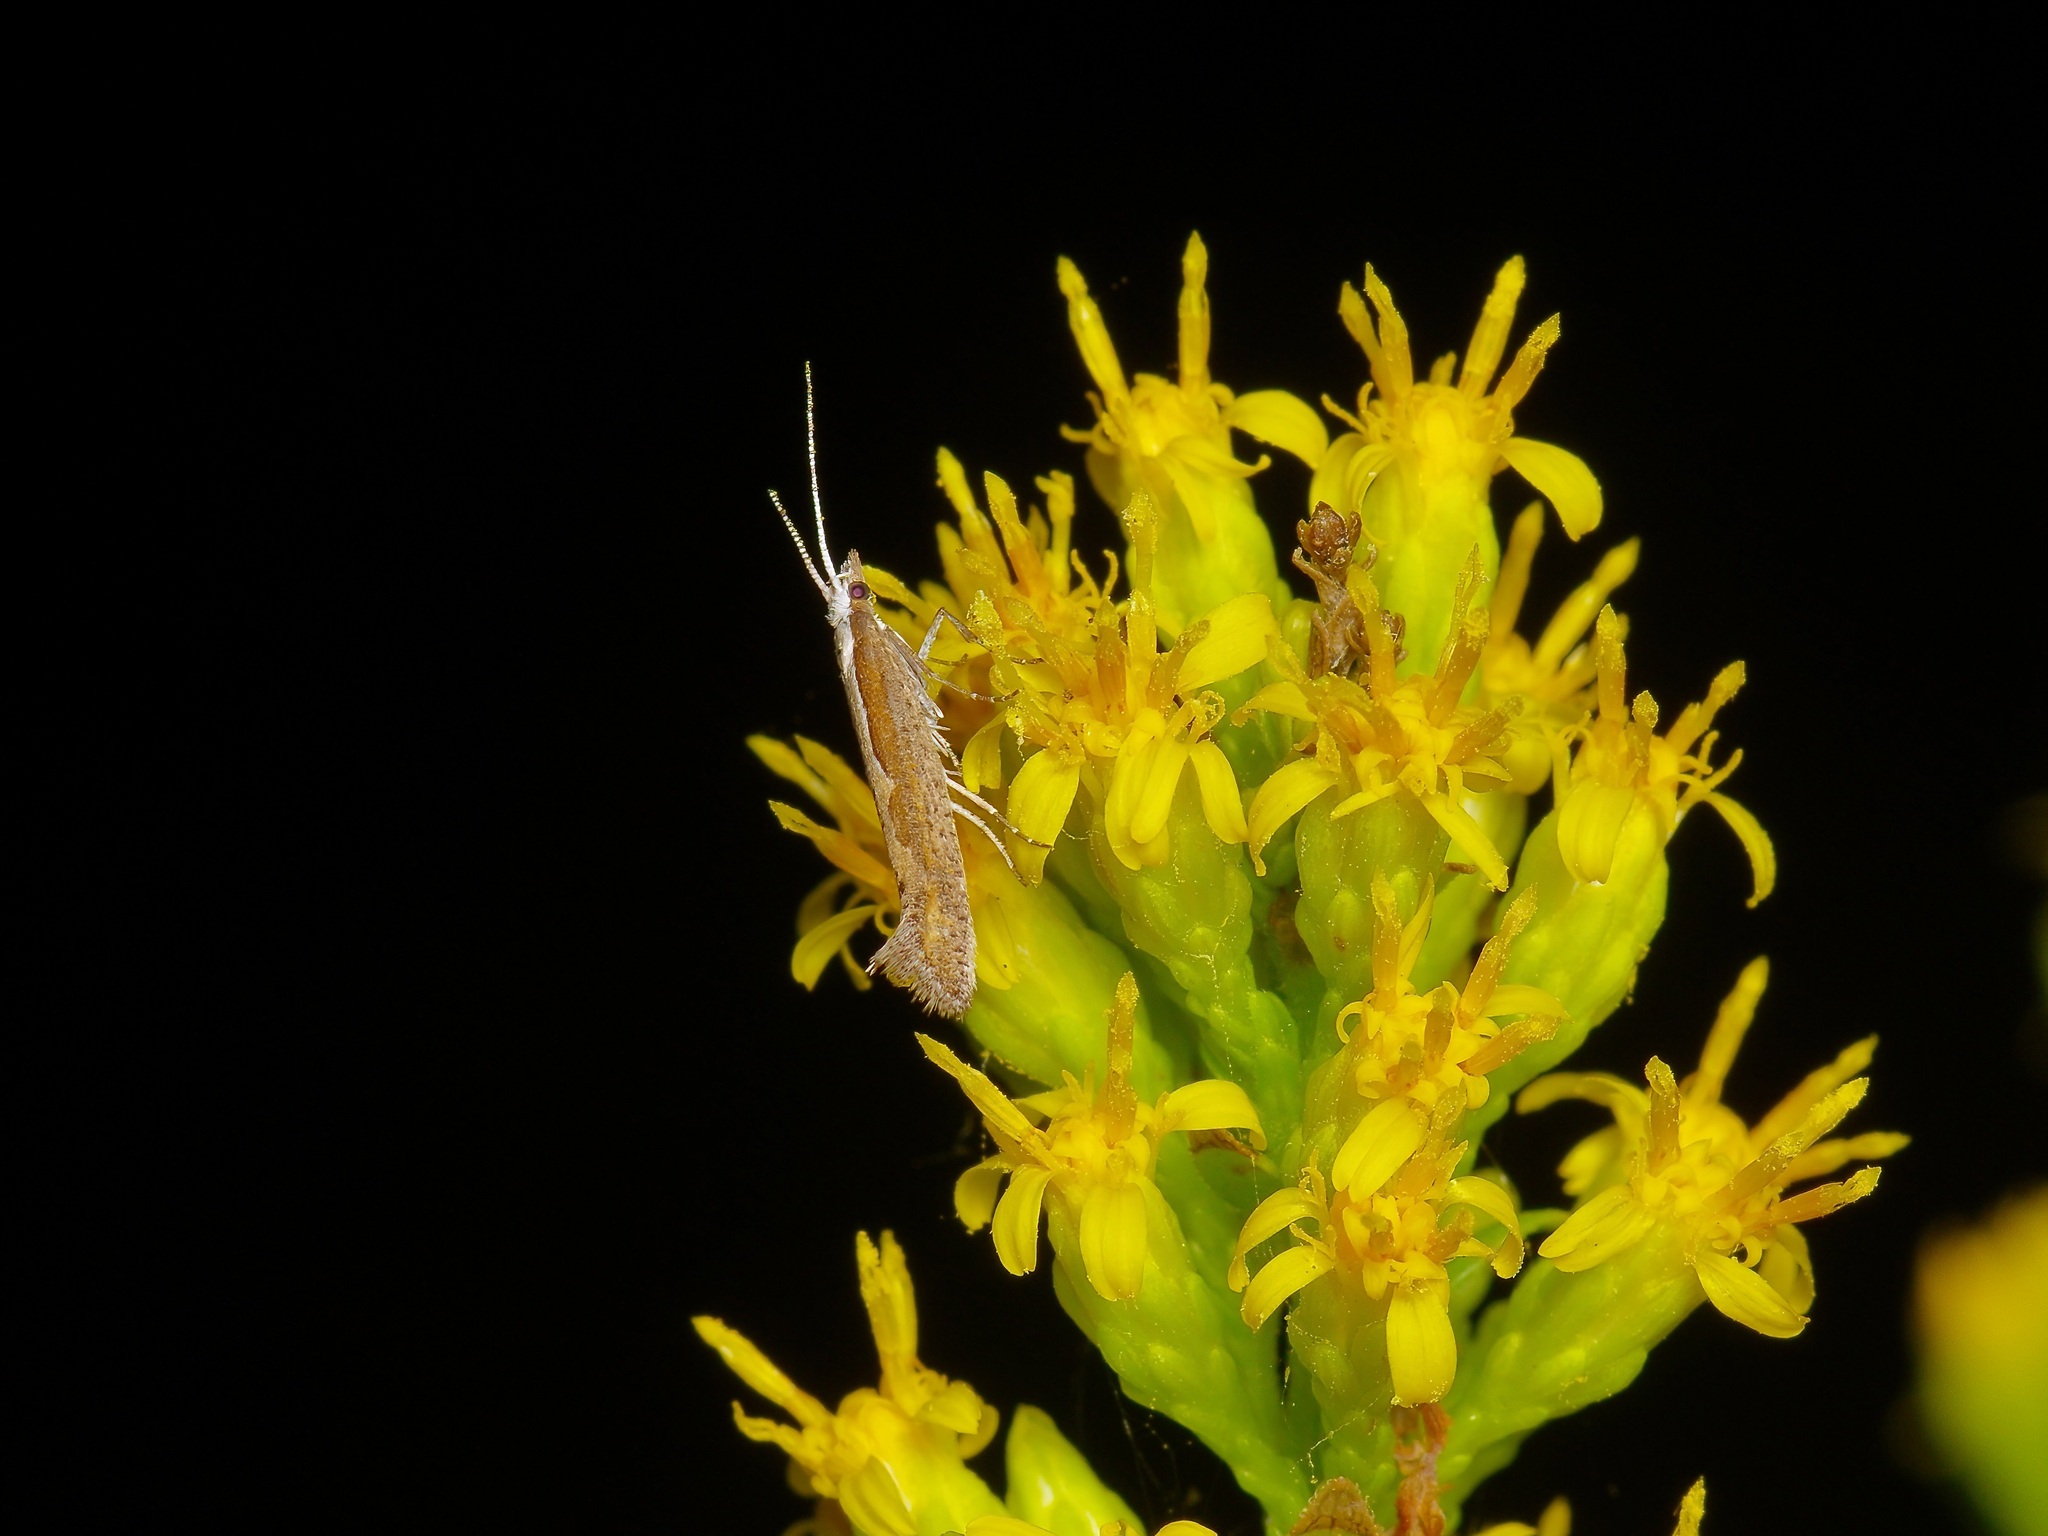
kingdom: Animalia
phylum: Arthropoda
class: Insecta
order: Lepidoptera
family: Plutellidae
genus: Plutella
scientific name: Plutella xylostella
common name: Diamond-back moth
